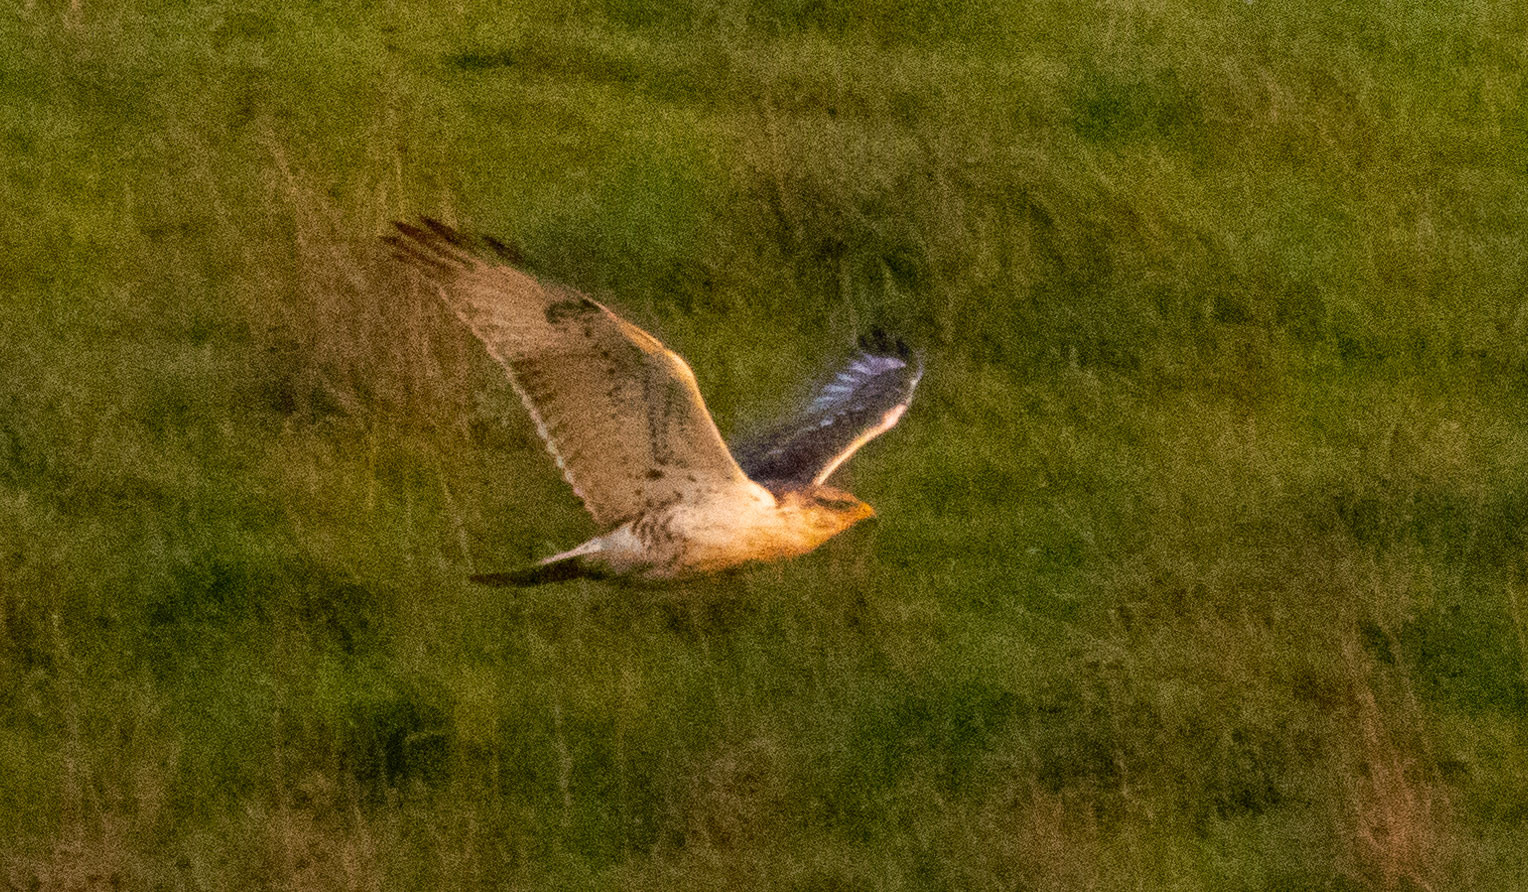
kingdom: Animalia
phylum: Chordata
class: Aves
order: Accipitriformes
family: Accipitridae
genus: Buteo
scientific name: Buteo regalis
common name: Ferruginous hawk
